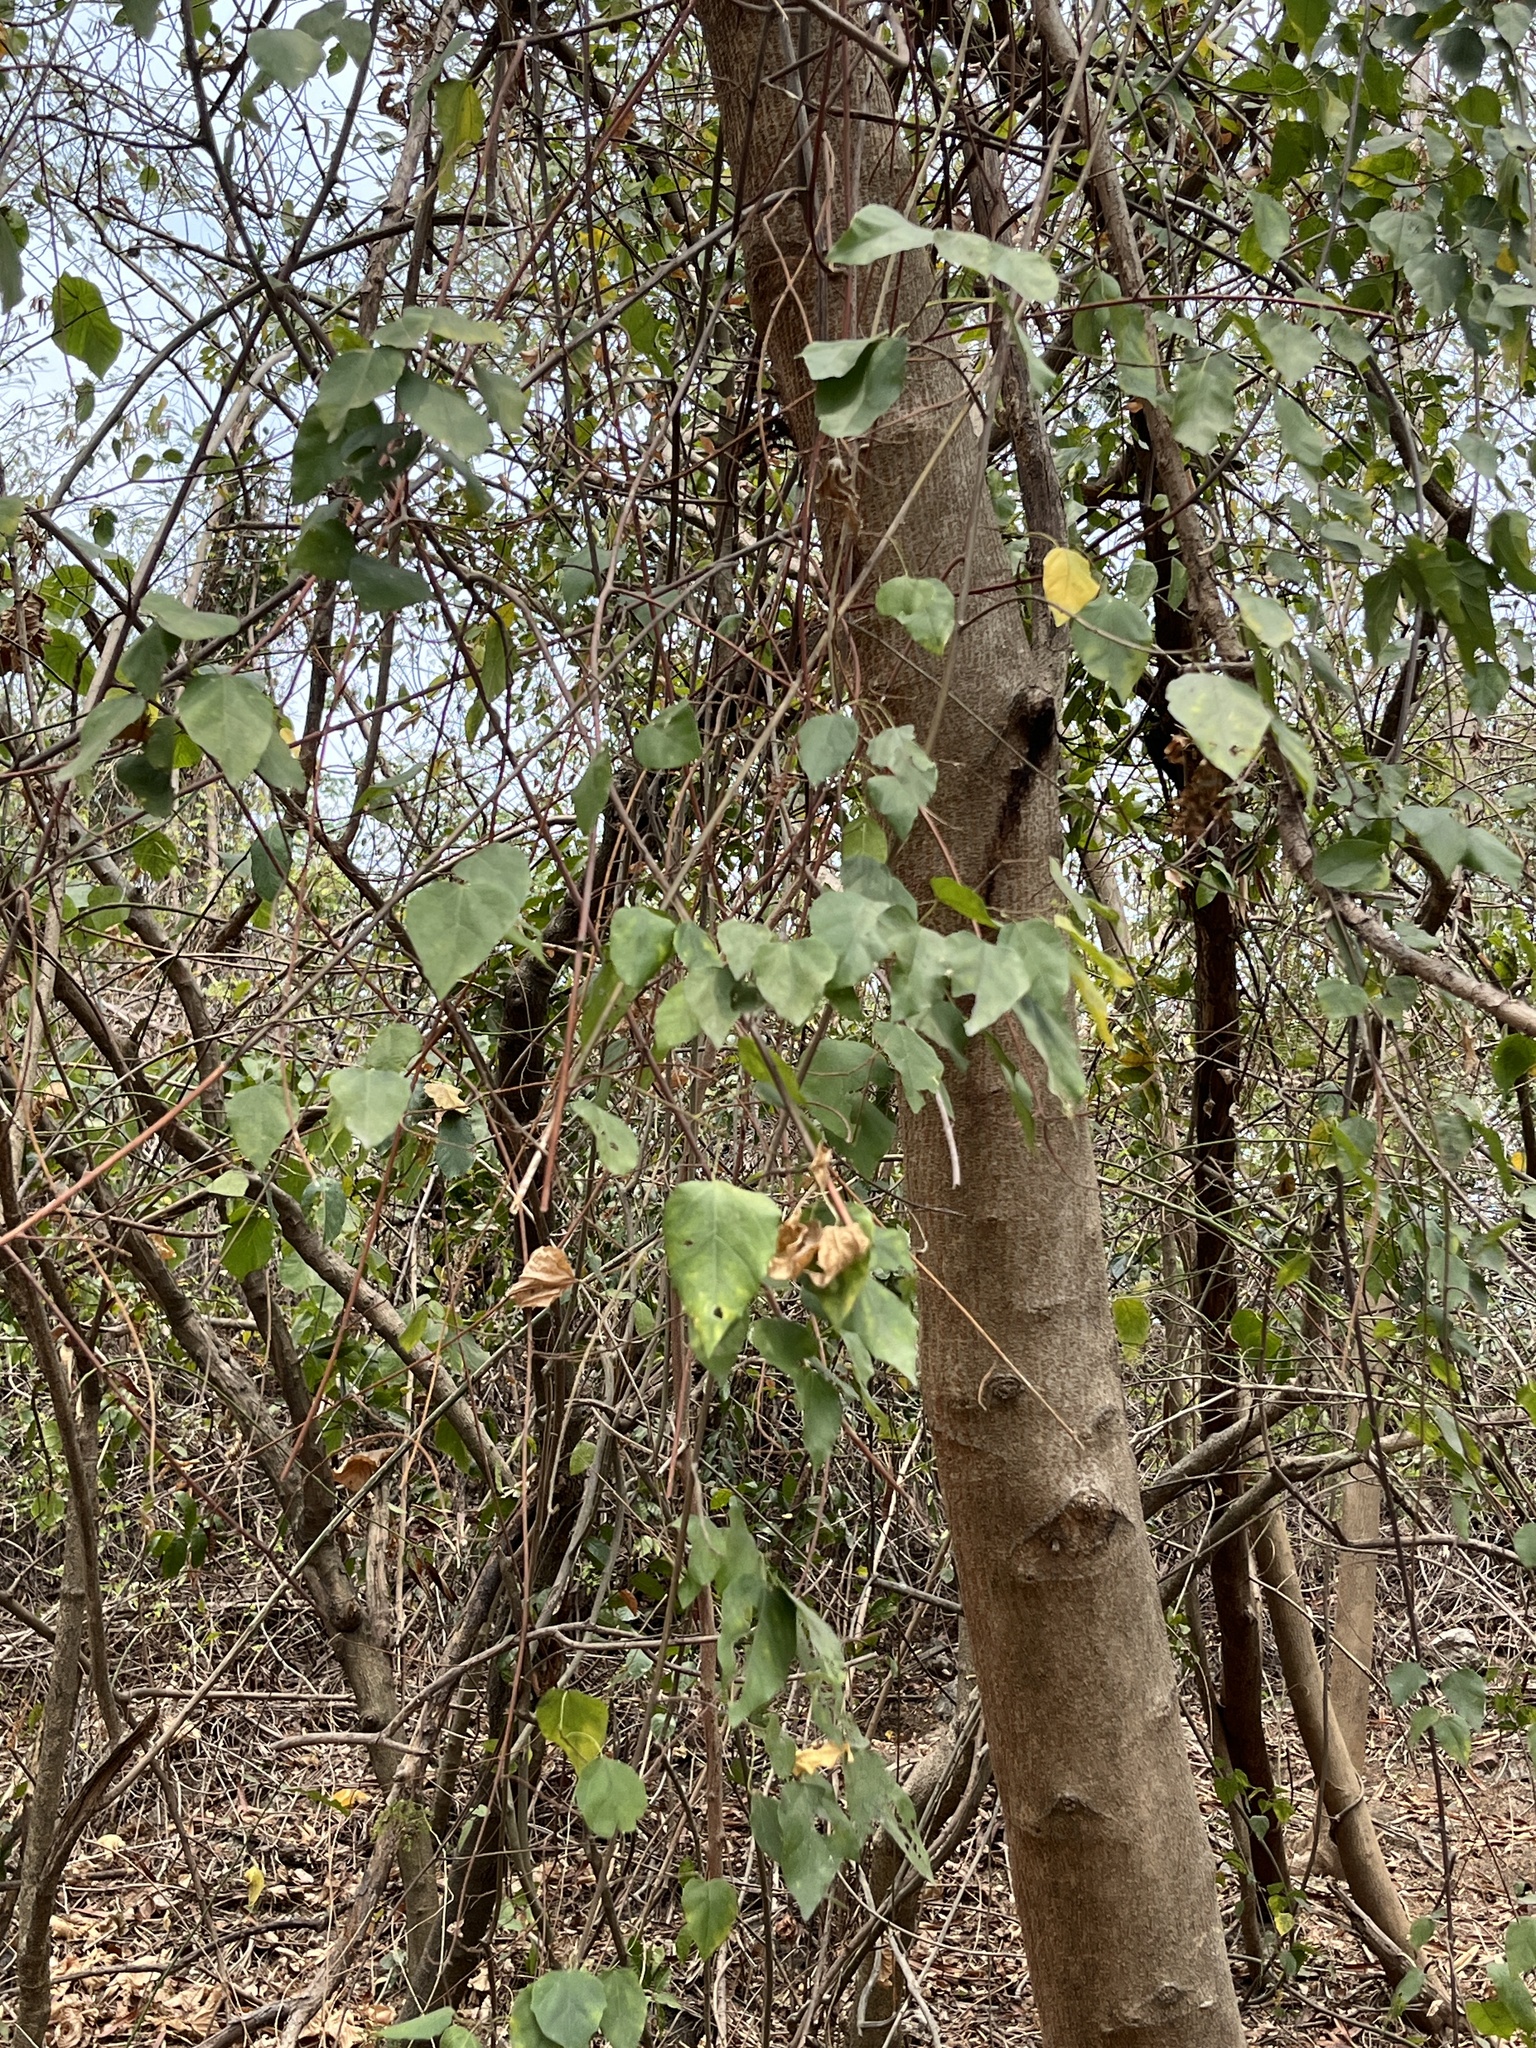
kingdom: Plantae
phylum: Tracheophyta
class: Magnoliopsida
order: Malpighiales
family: Euphorbiaceae
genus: Mallotus
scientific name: Mallotus repandus
